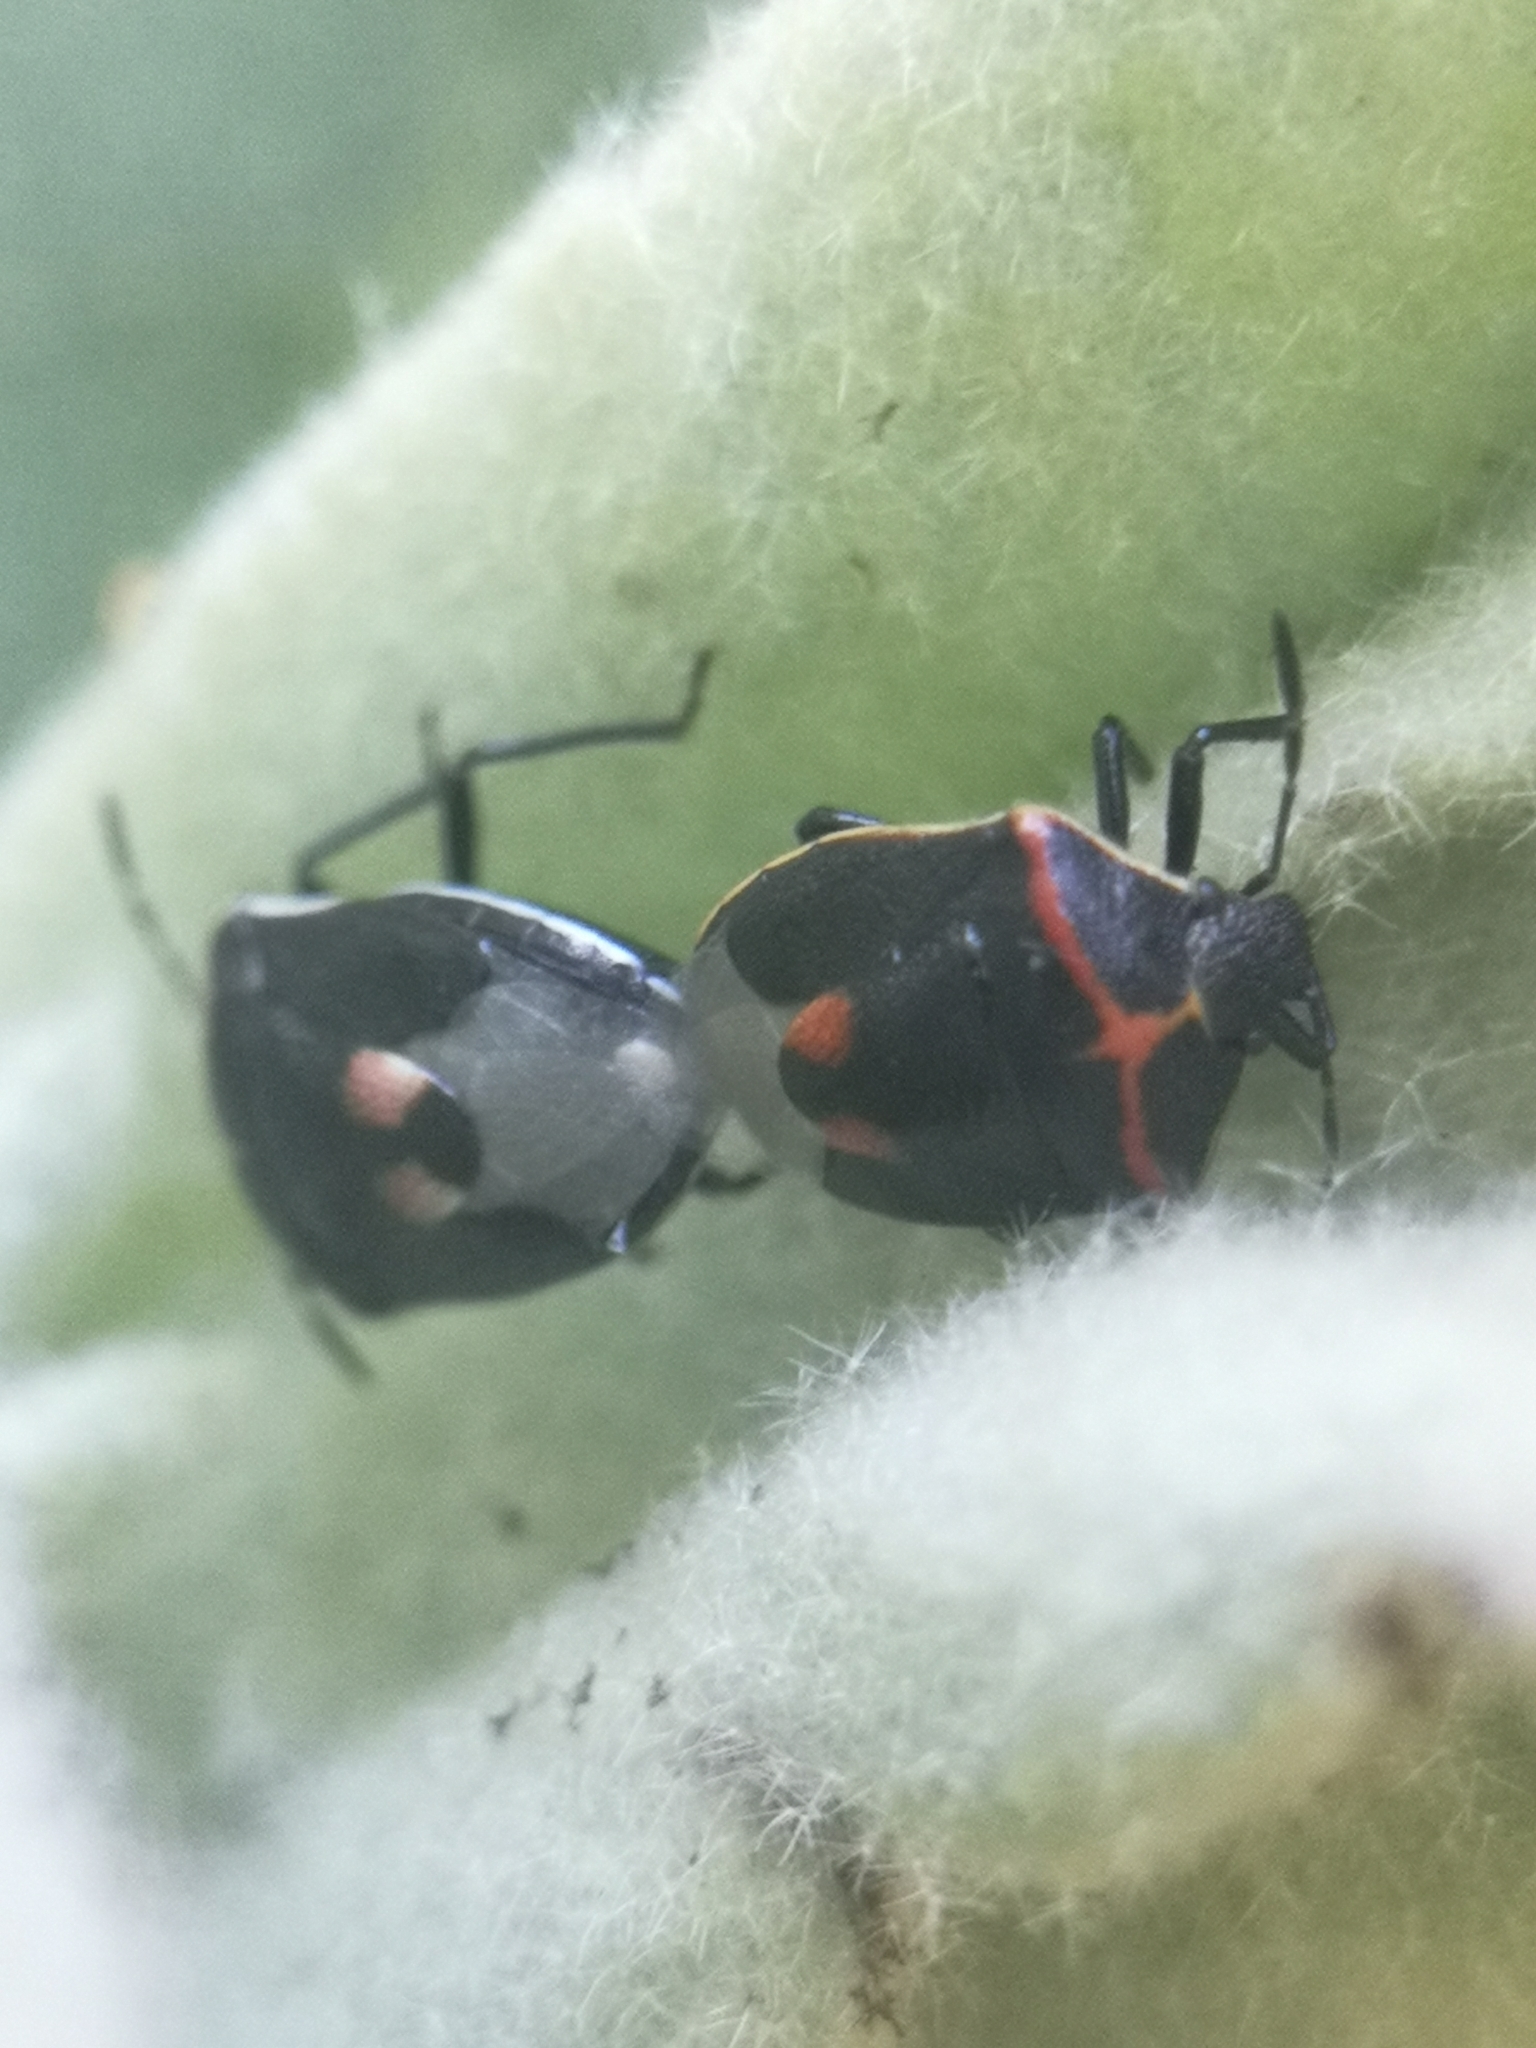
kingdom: Animalia
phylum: Arthropoda
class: Insecta
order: Hemiptera
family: Pentatomidae
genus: Cosmopepla
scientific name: Cosmopepla lintneriana
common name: Twice-stabbed stink bug
